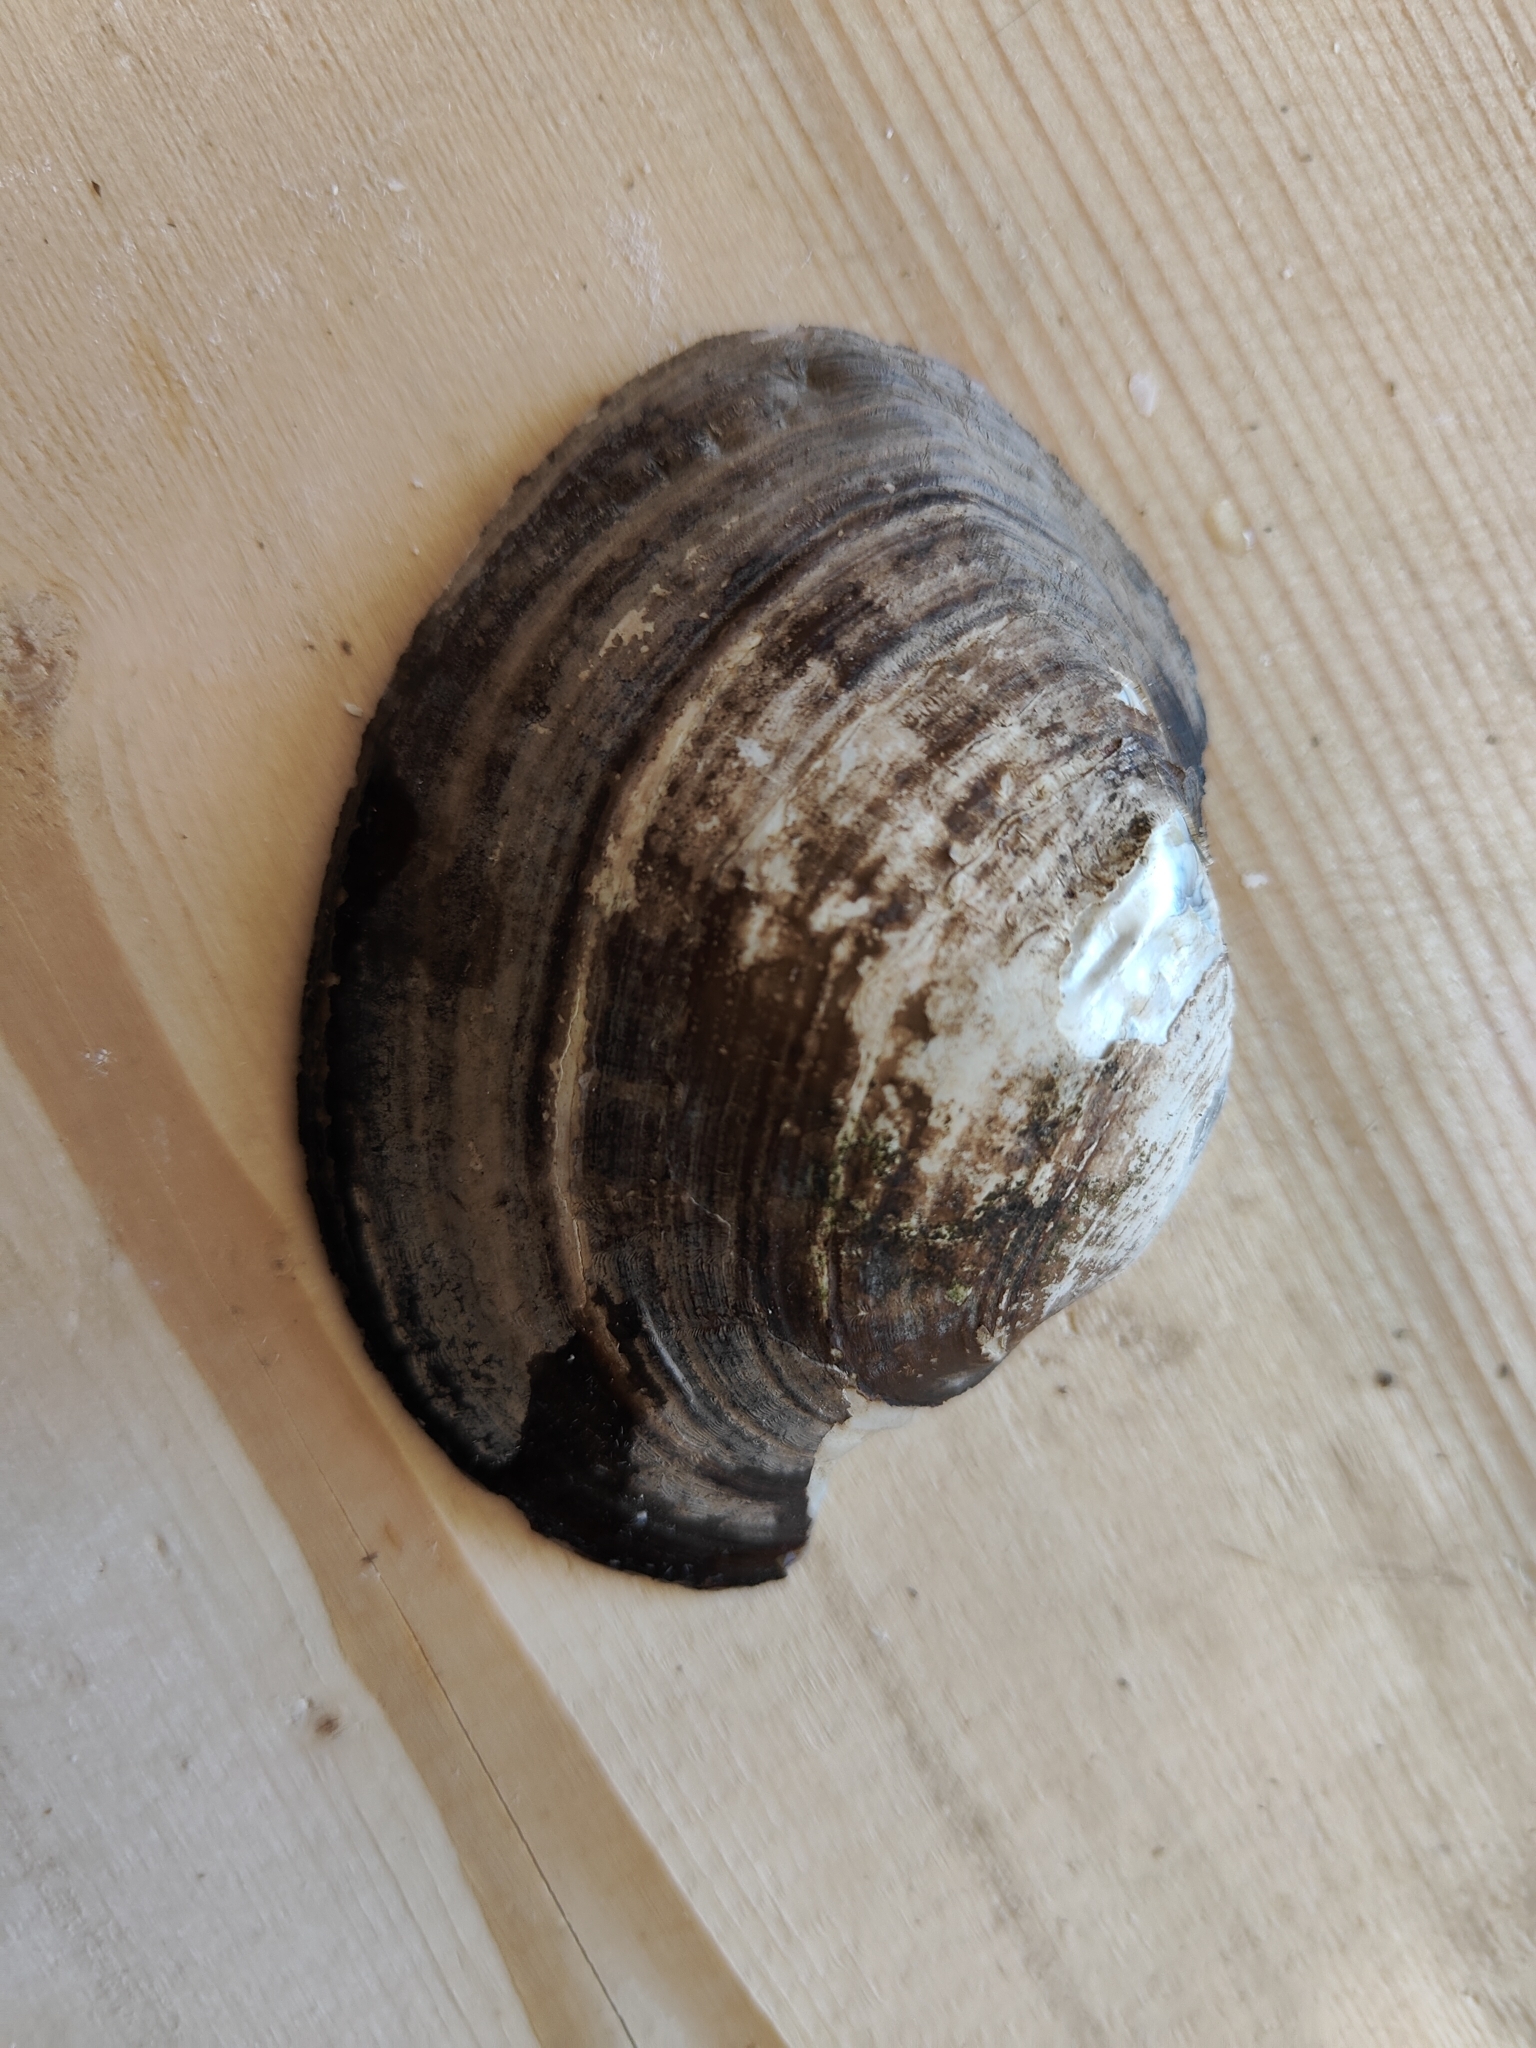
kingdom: Animalia
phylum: Mollusca
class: Bivalvia
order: Unionida
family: Unionidae
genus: Lampsilis
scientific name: Lampsilis cardium
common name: Plain pocketbook
